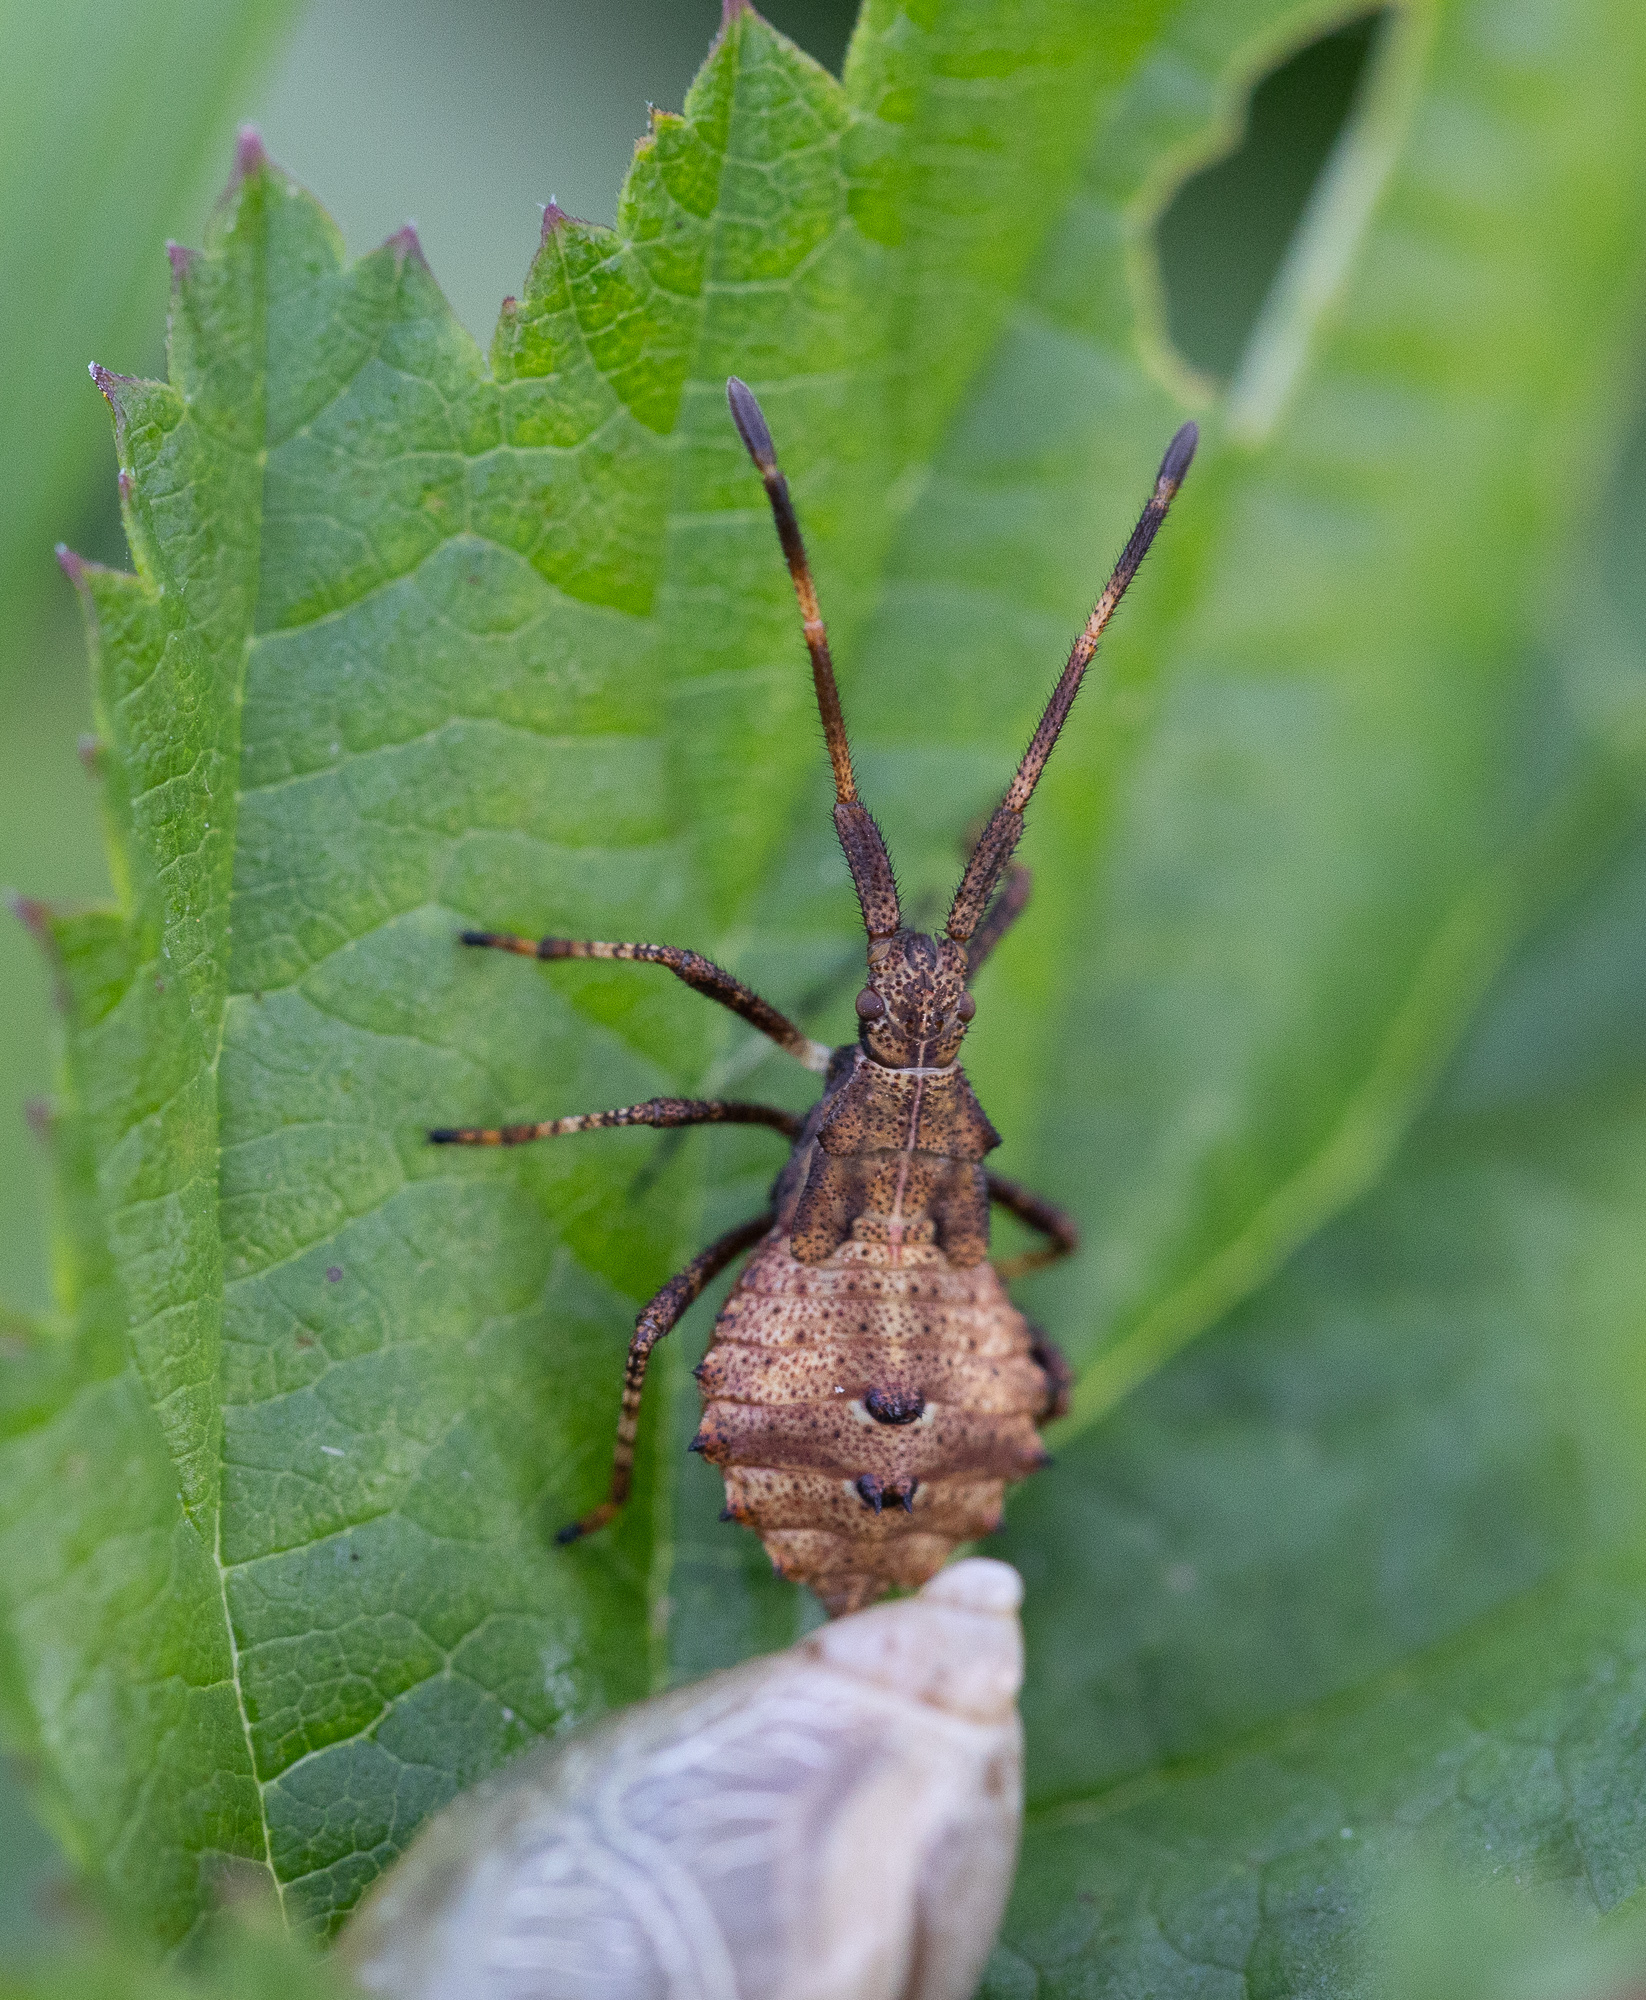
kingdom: Animalia
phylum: Arthropoda
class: Insecta
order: Hemiptera
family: Coreidae
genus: Coreus
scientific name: Coreus marginatus
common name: Dock bug
